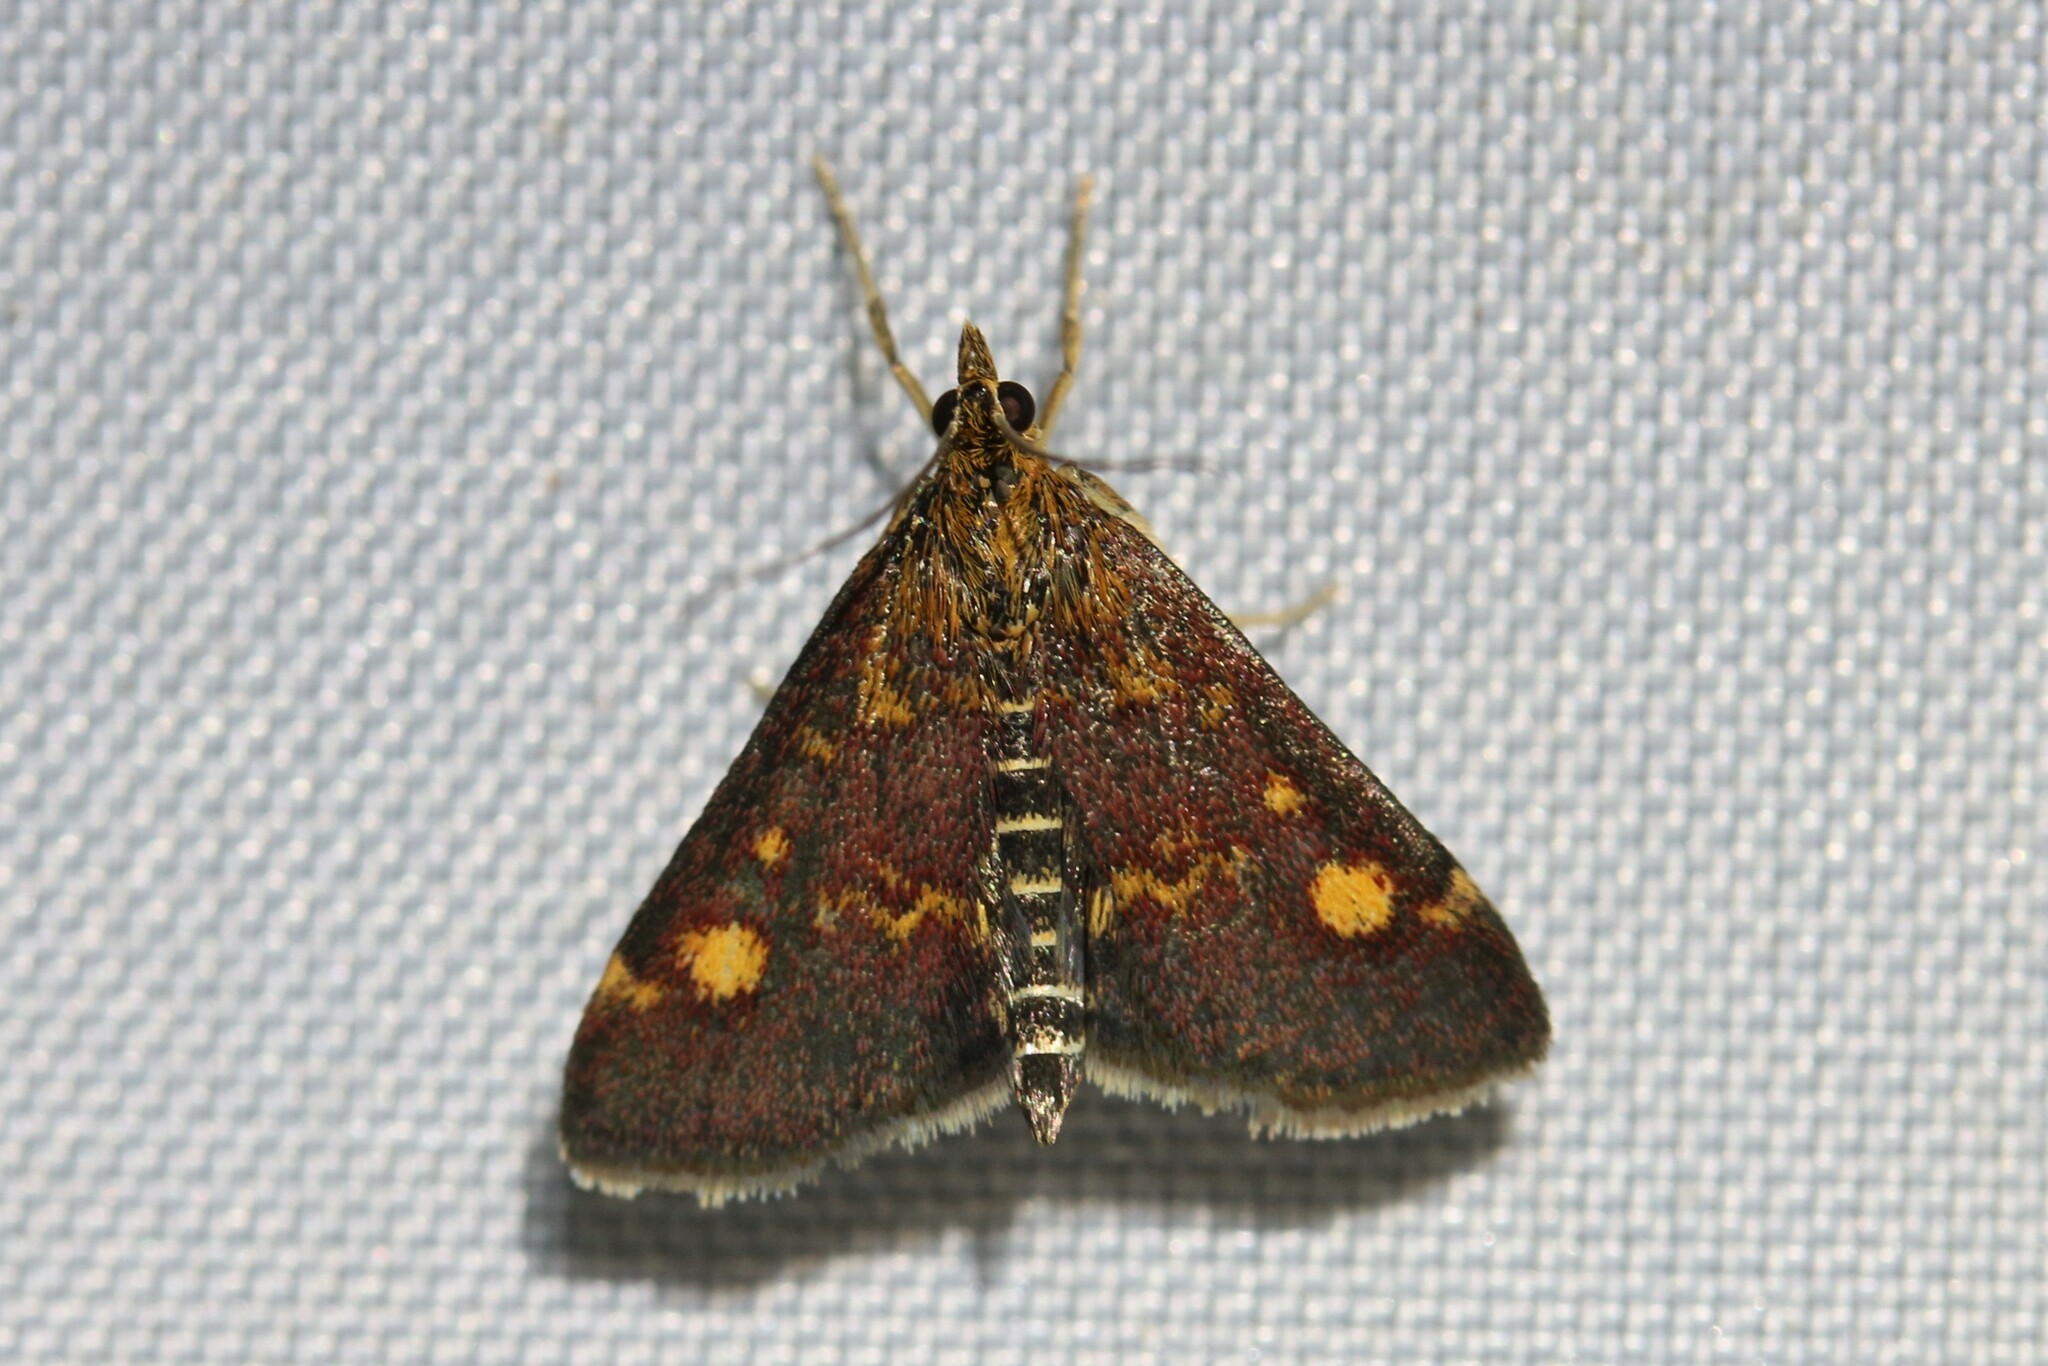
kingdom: Animalia
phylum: Arthropoda
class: Insecta
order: Lepidoptera
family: Crambidae
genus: Pyrausta
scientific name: Pyrausta aurata
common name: Small purple & gold
